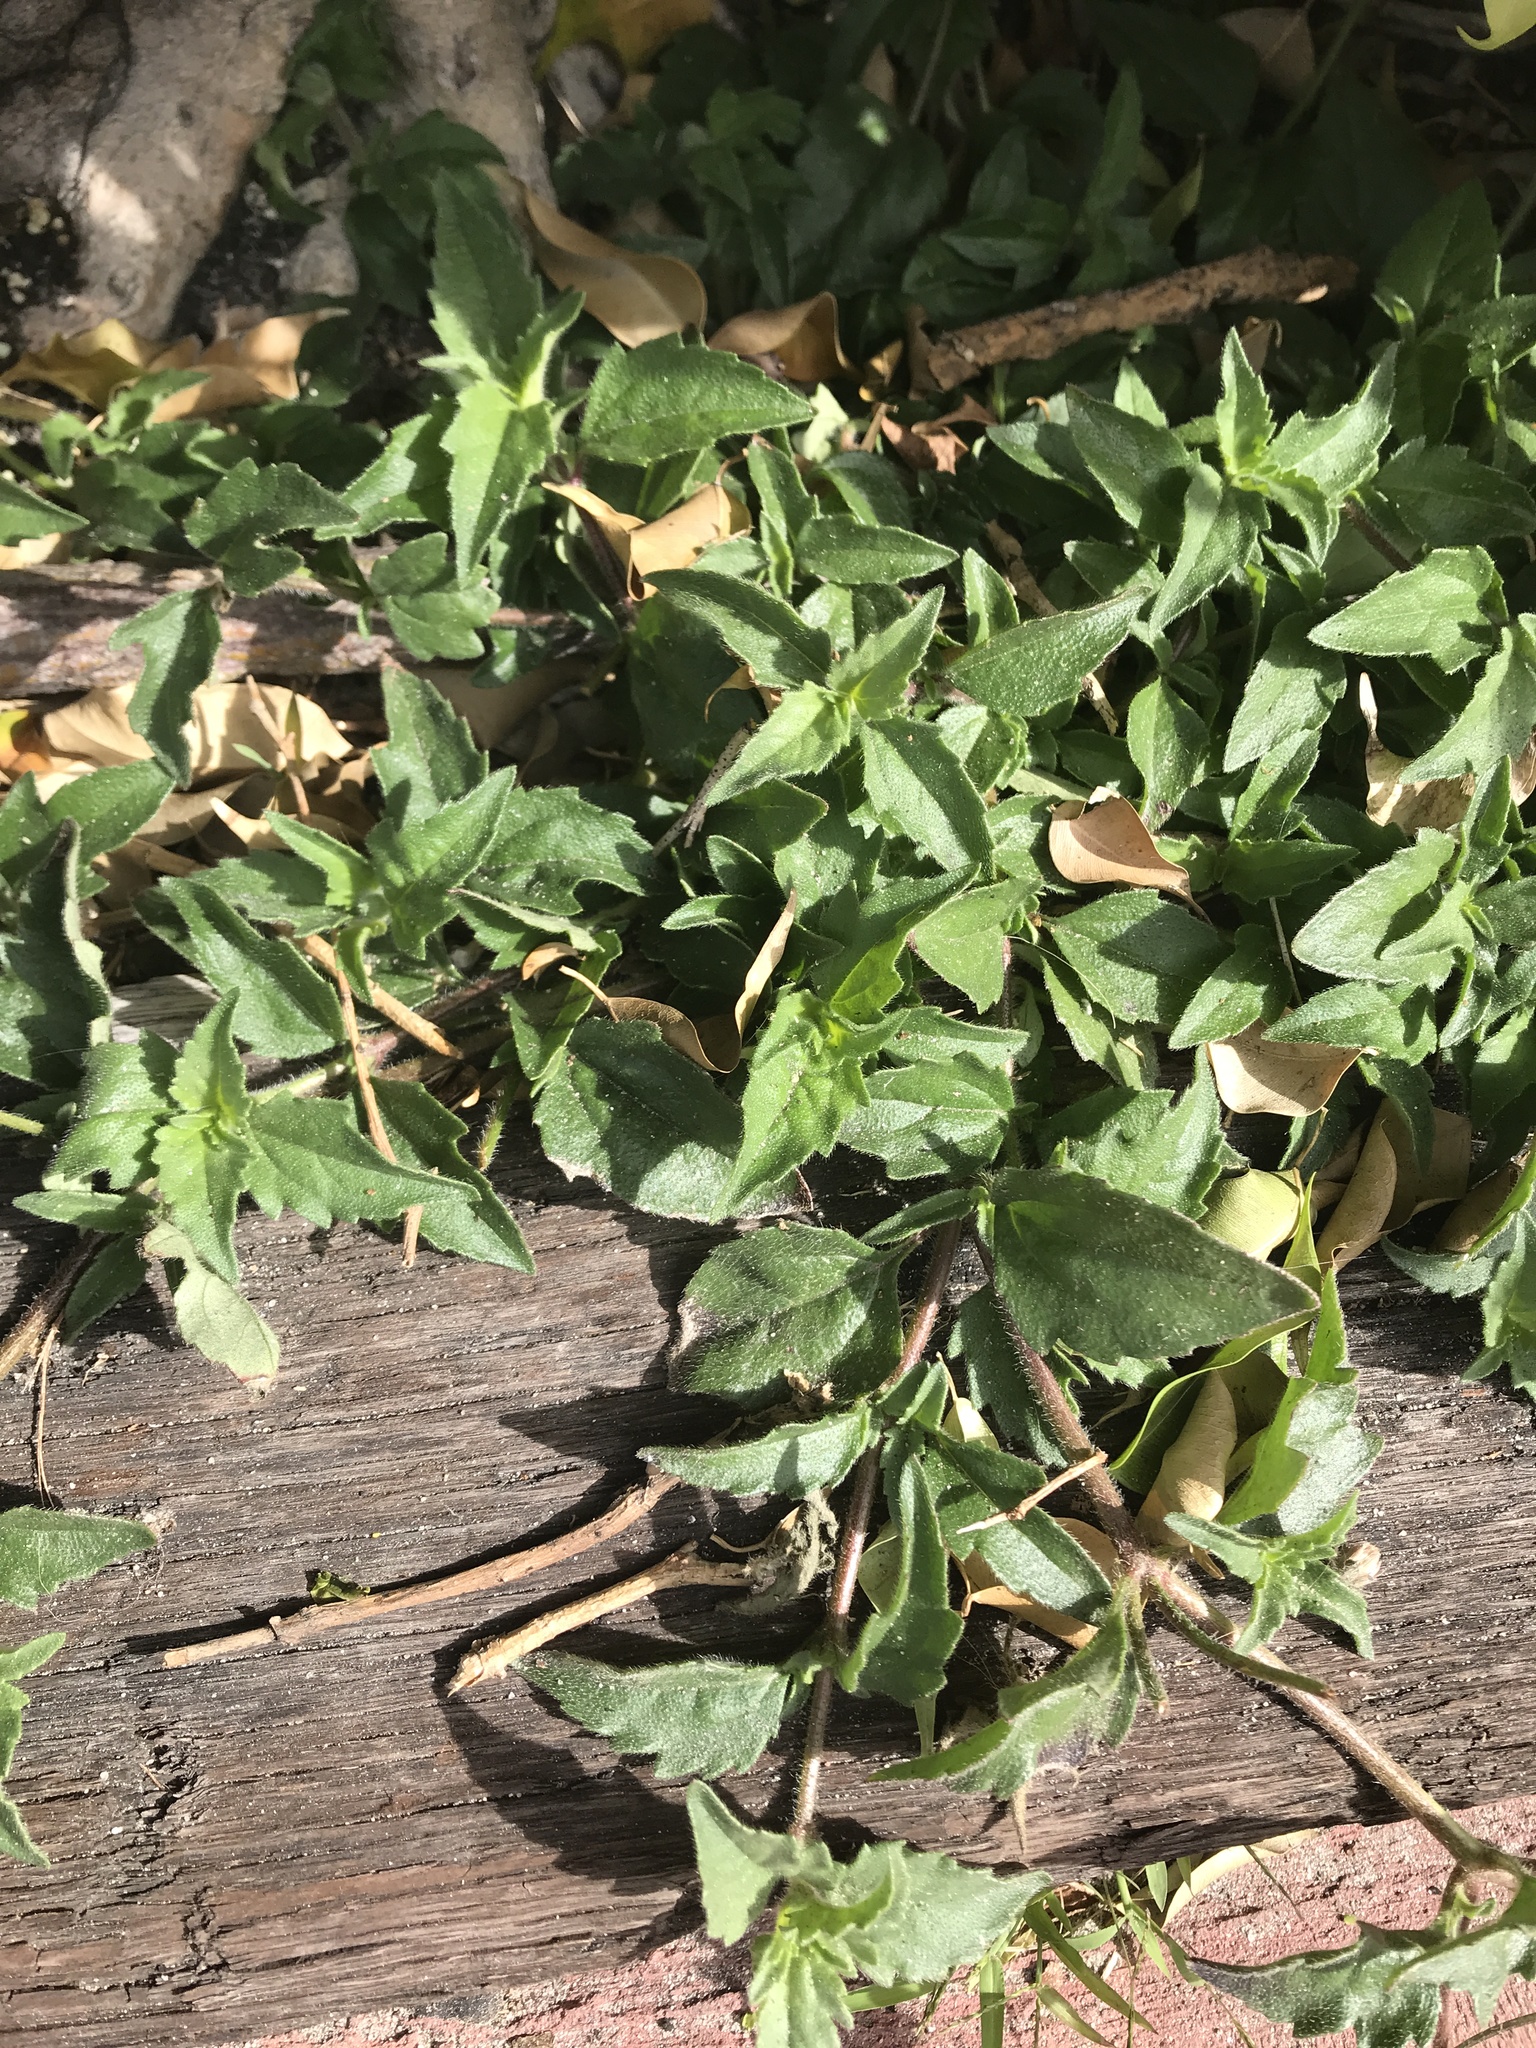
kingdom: Plantae
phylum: Tracheophyta
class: Magnoliopsida
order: Asterales
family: Asteraceae
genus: Tridax
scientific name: Tridax procumbens
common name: Coatbuttons
